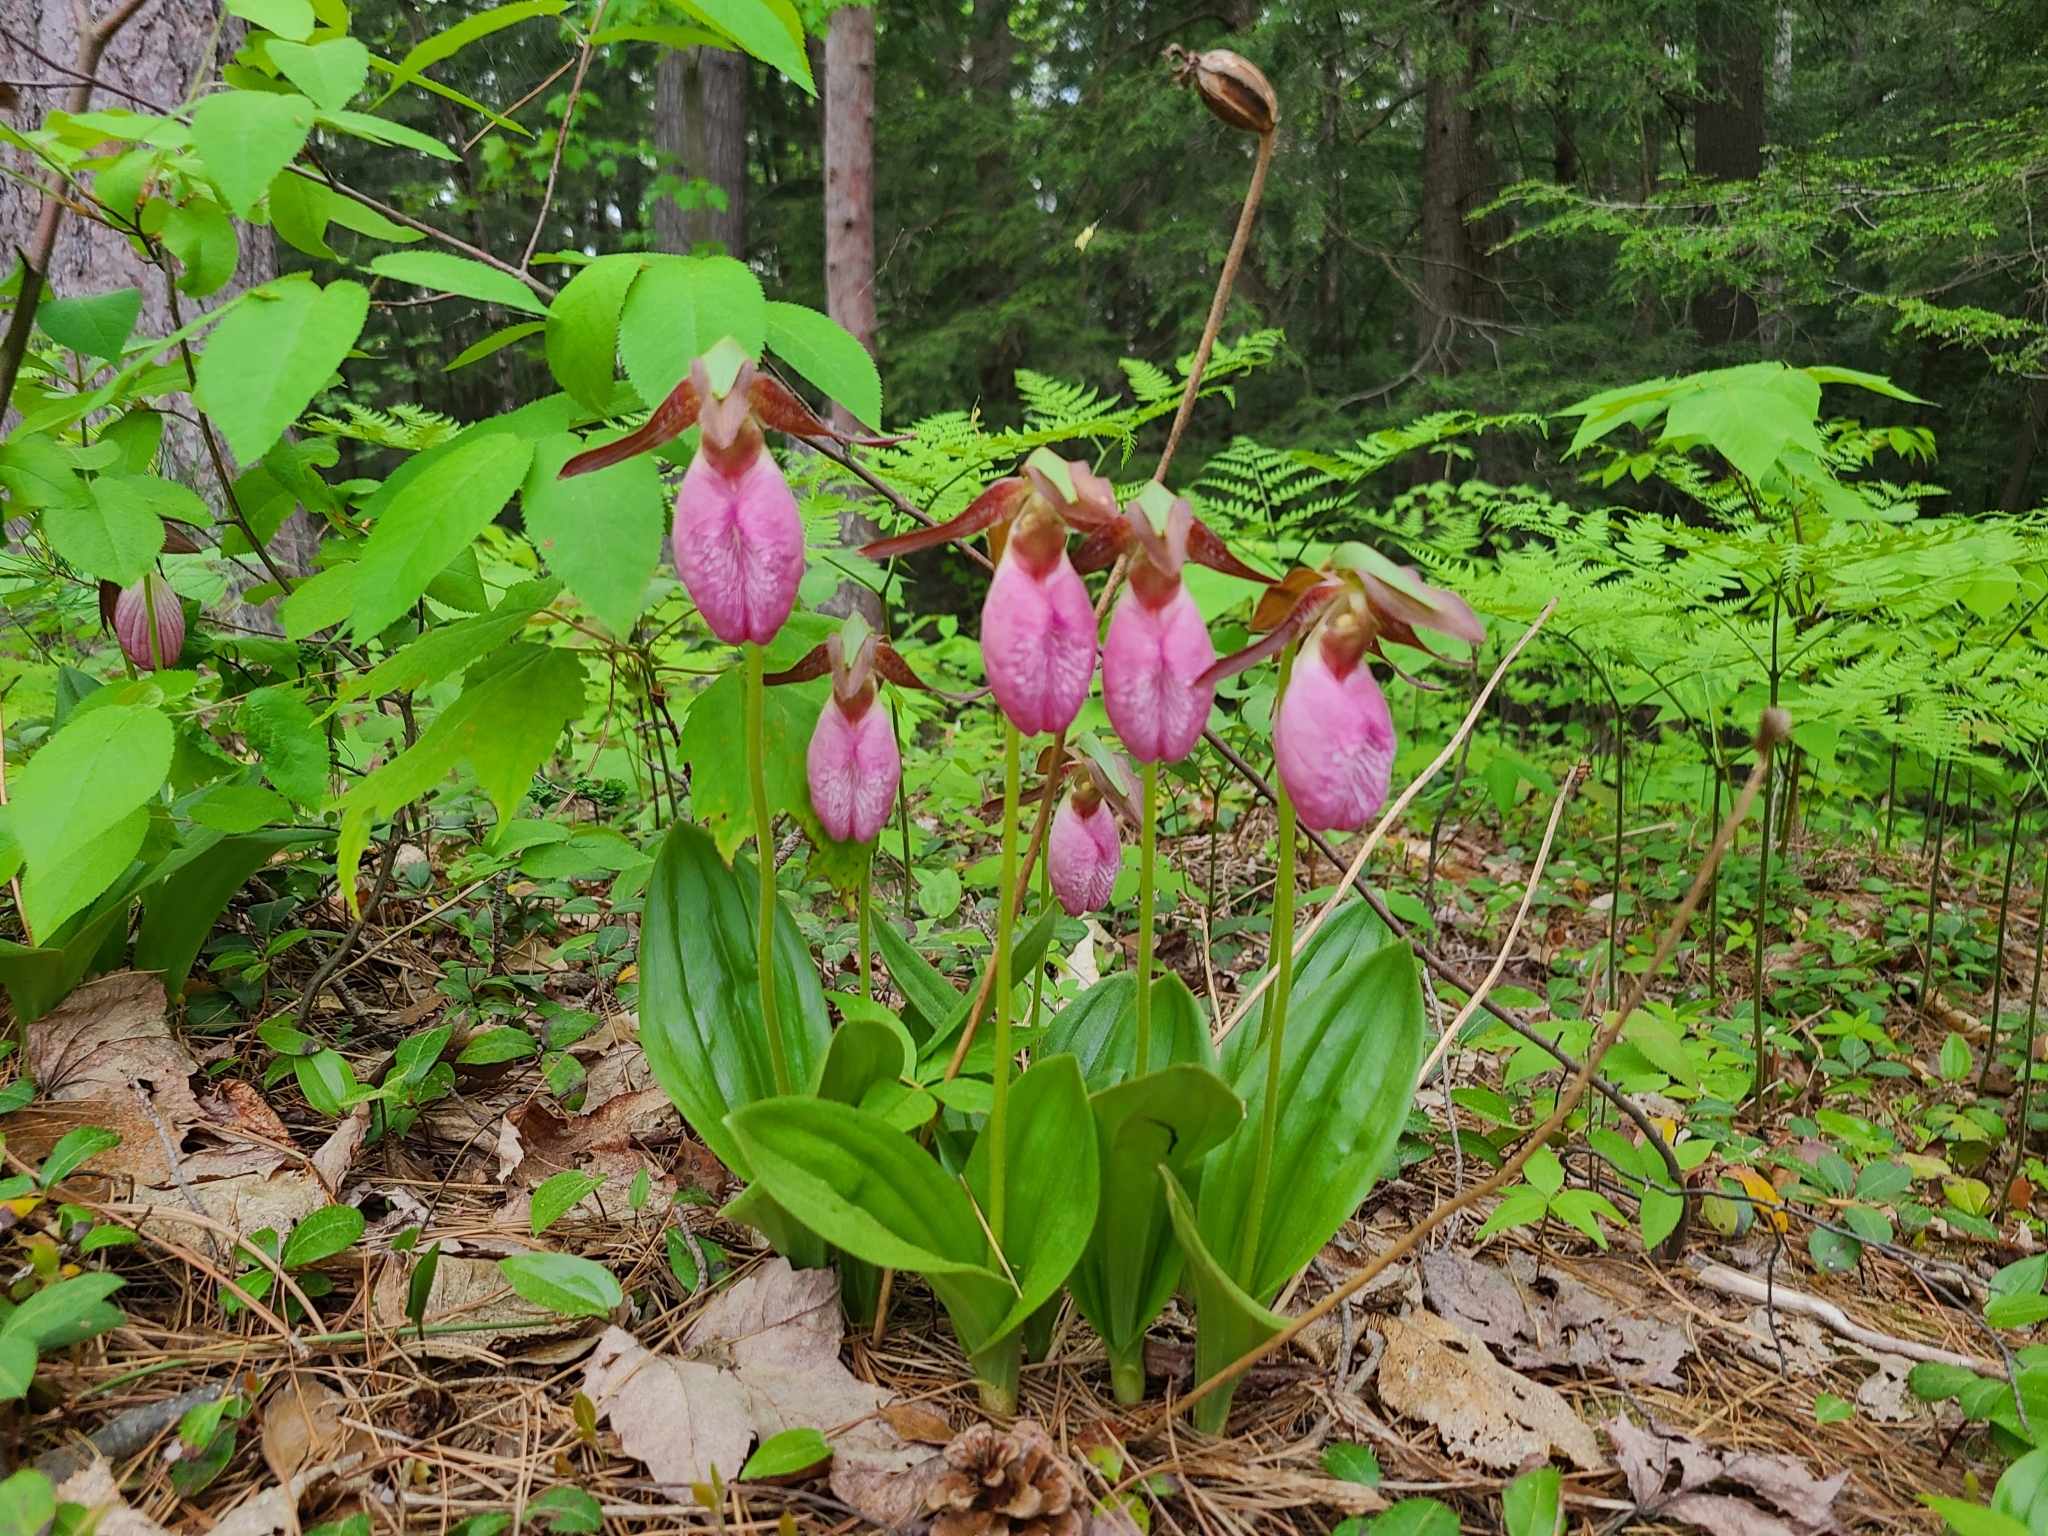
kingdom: Plantae
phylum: Tracheophyta
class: Liliopsida
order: Asparagales
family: Orchidaceae
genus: Cypripedium
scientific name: Cypripedium acaule
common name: Pink lady's-slipper
